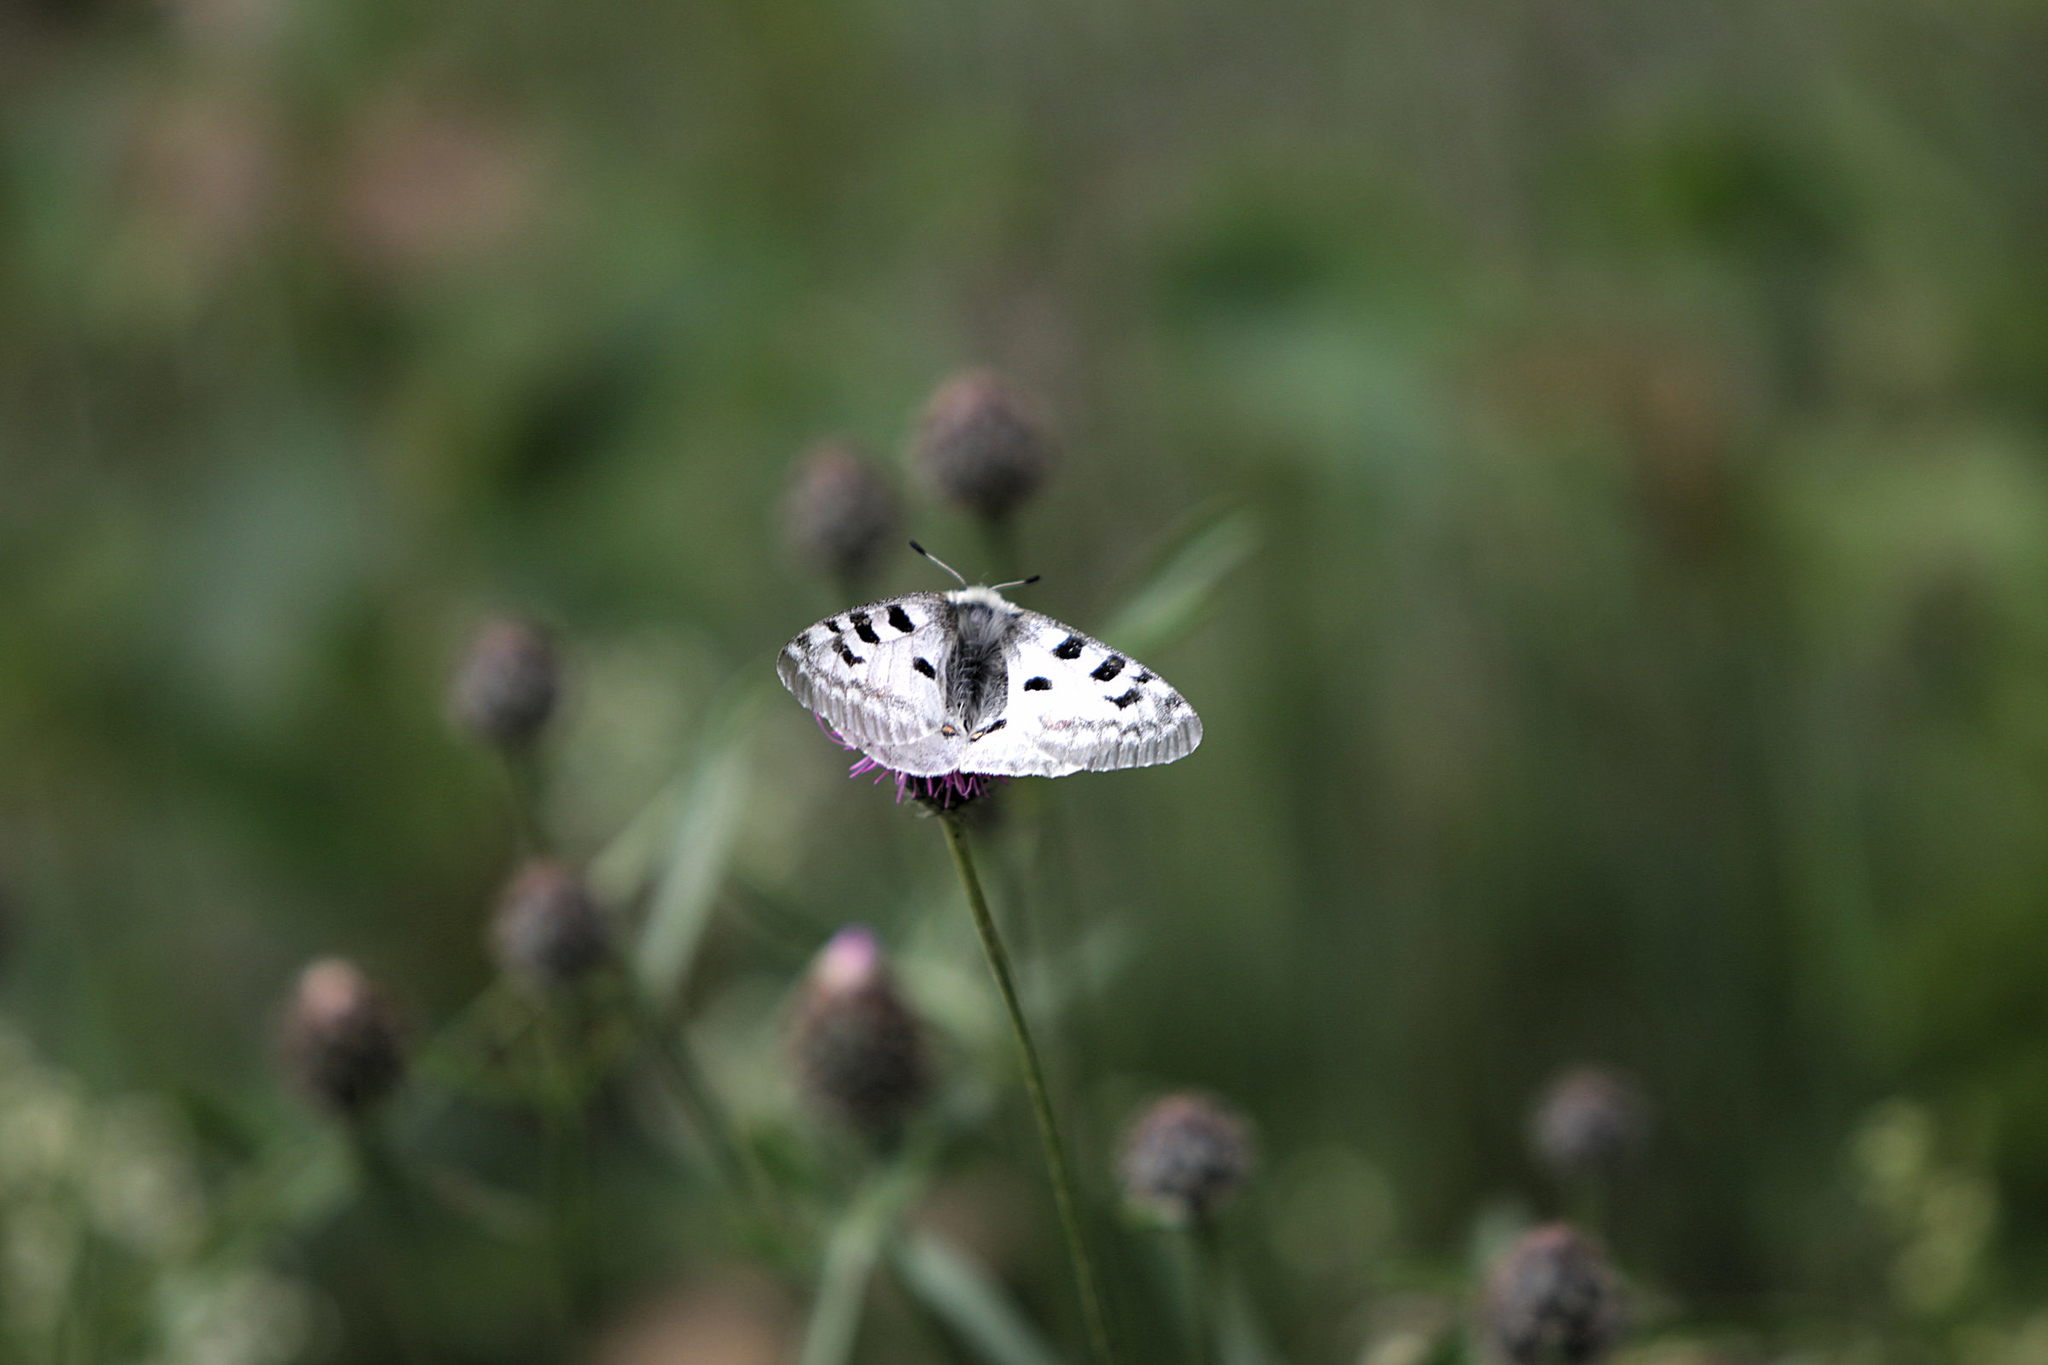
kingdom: Animalia
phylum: Arthropoda
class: Insecta
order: Lepidoptera
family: Papilionidae
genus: Parnassius
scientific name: Parnassius apollo
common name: Apollo
